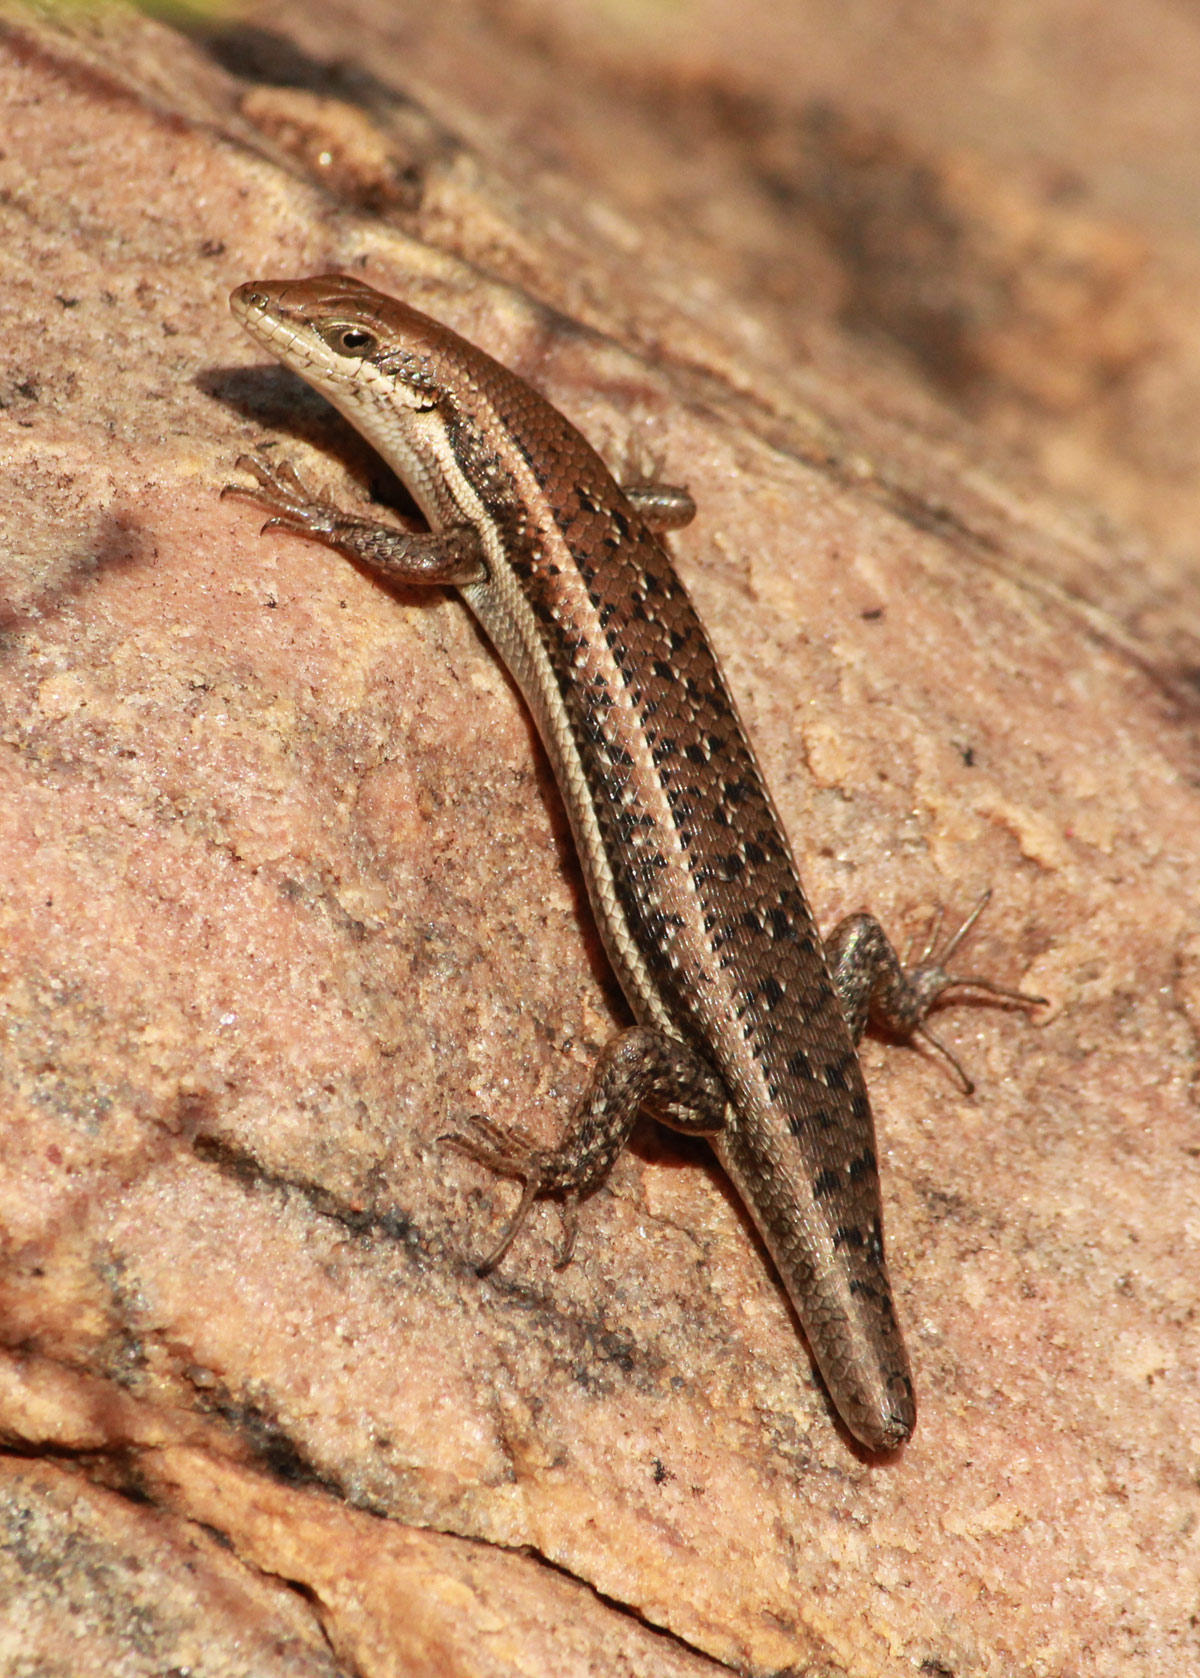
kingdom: Animalia
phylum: Chordata
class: Squamata
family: Scincidae
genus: Trachylepis
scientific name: Trachylepis varia
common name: Eastern variable skink
